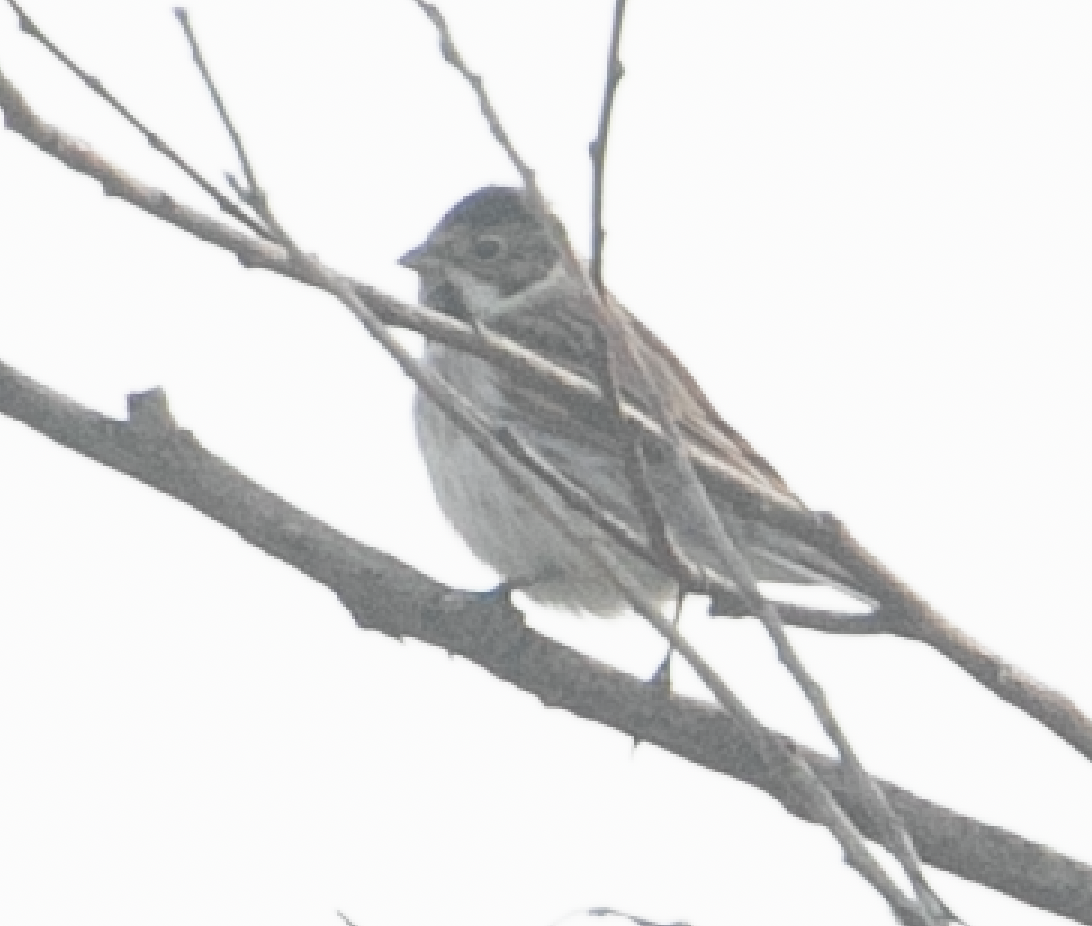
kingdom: Animalia
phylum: Chordata
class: Aves
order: Passeriformes
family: Emberizidae
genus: Emberiza
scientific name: Emberiza schoeniclus
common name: Reed bunting
